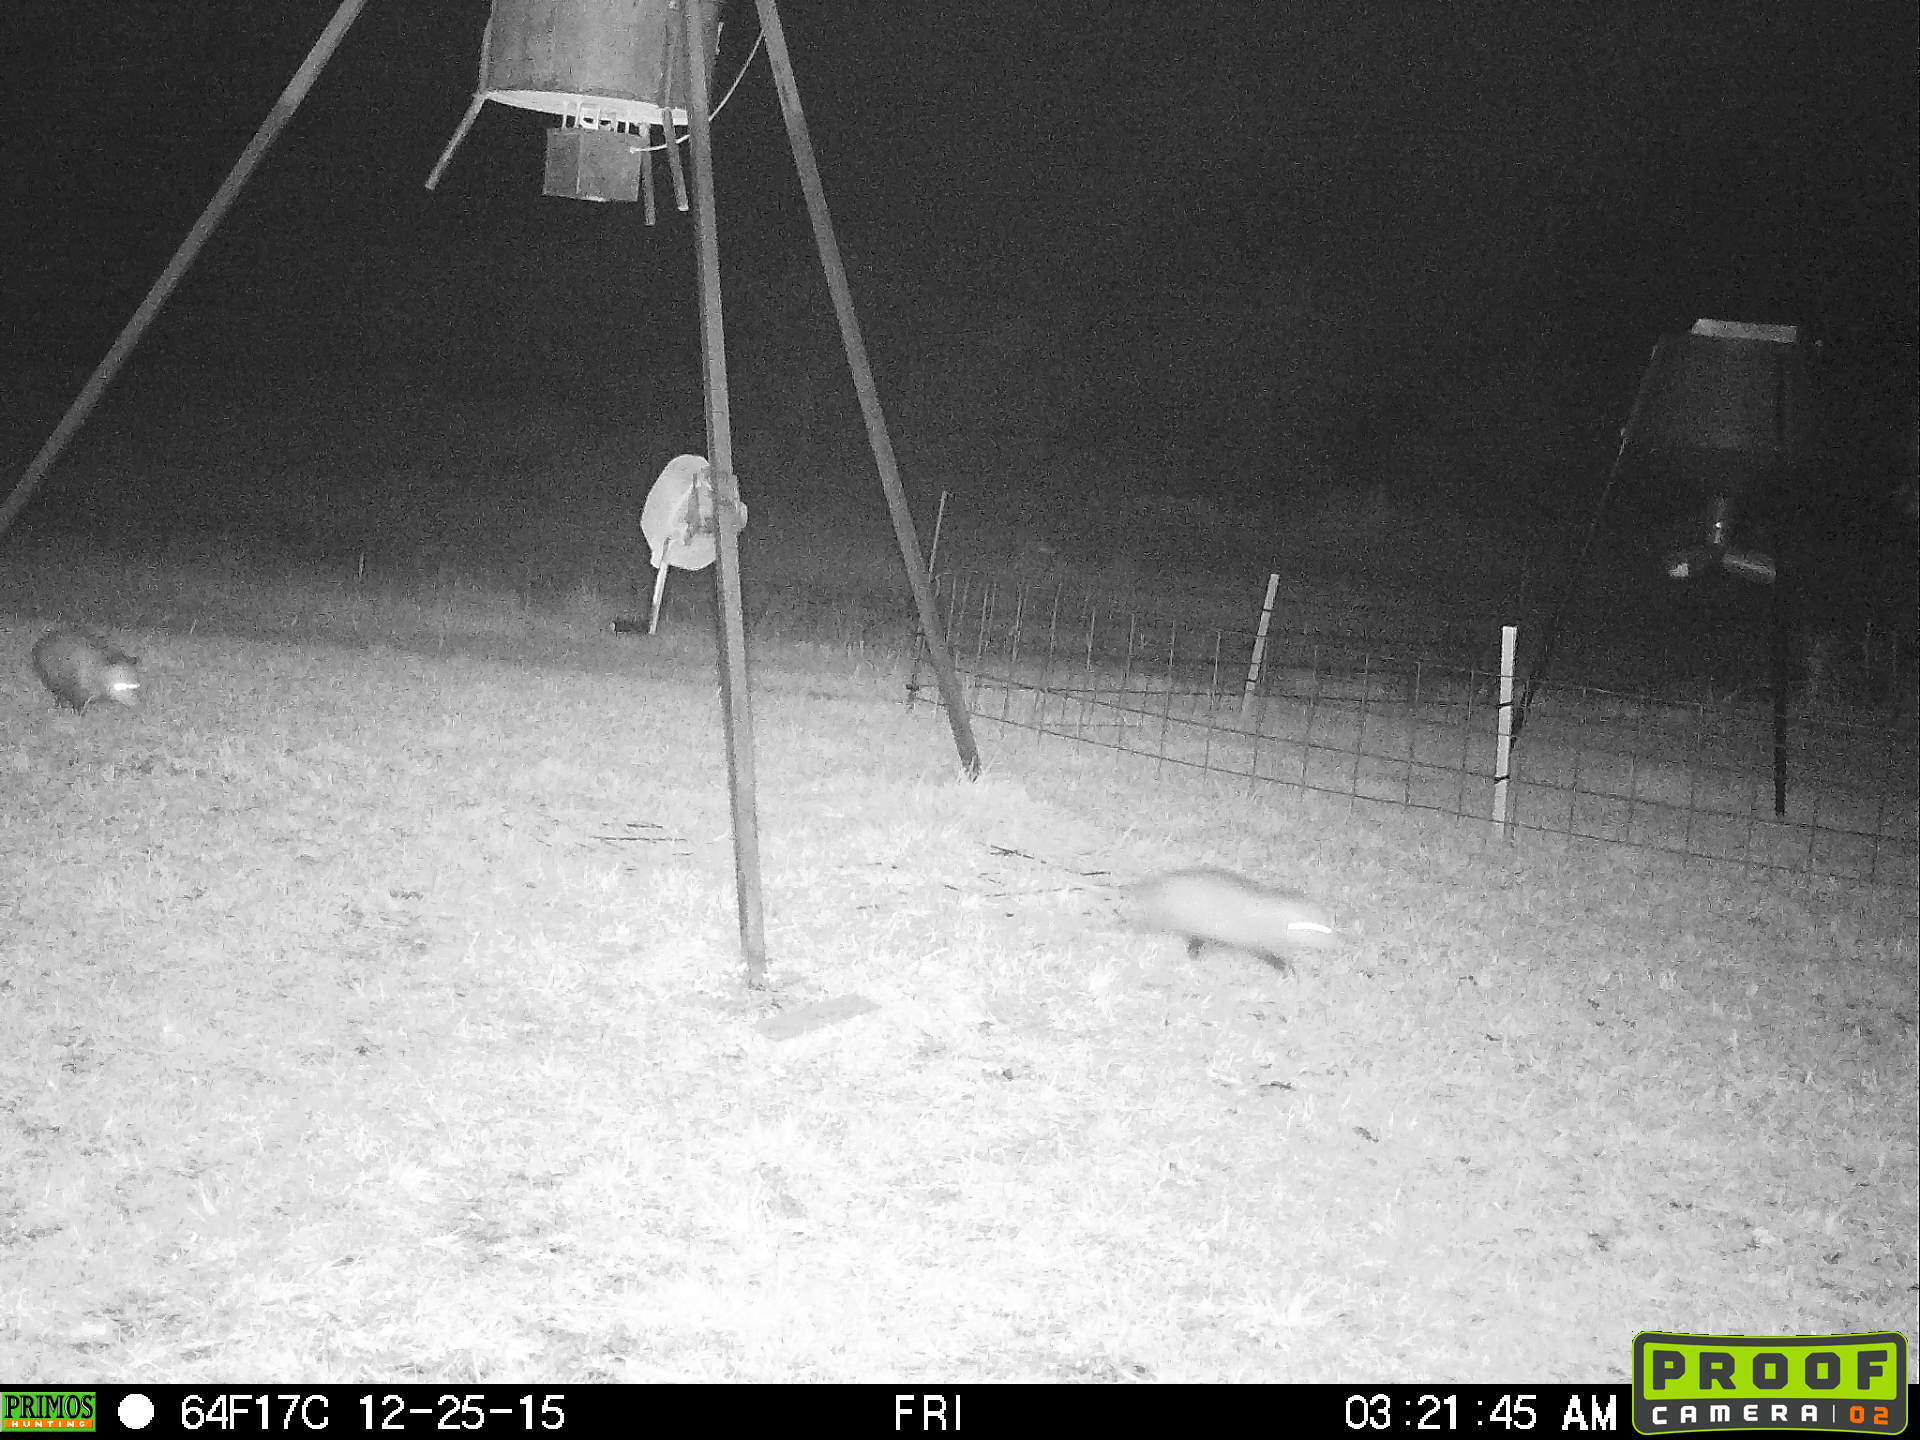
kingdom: Animalia
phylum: Chordata
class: Mammalia
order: Didelphimorphia
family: Didelphidae
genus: Didelphis
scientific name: Didelphis virginiana
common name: Virginia opossum
